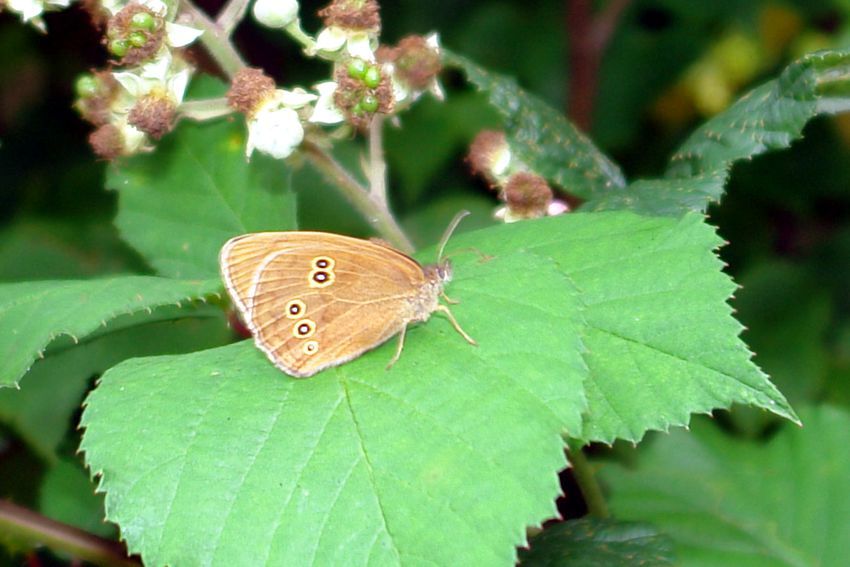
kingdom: Animalia
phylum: Arthropoda
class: Insecta
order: Lepidoptera
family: Nymphalidae
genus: Aphantopus
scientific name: Aphantopus hyperantus
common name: Ringlet
